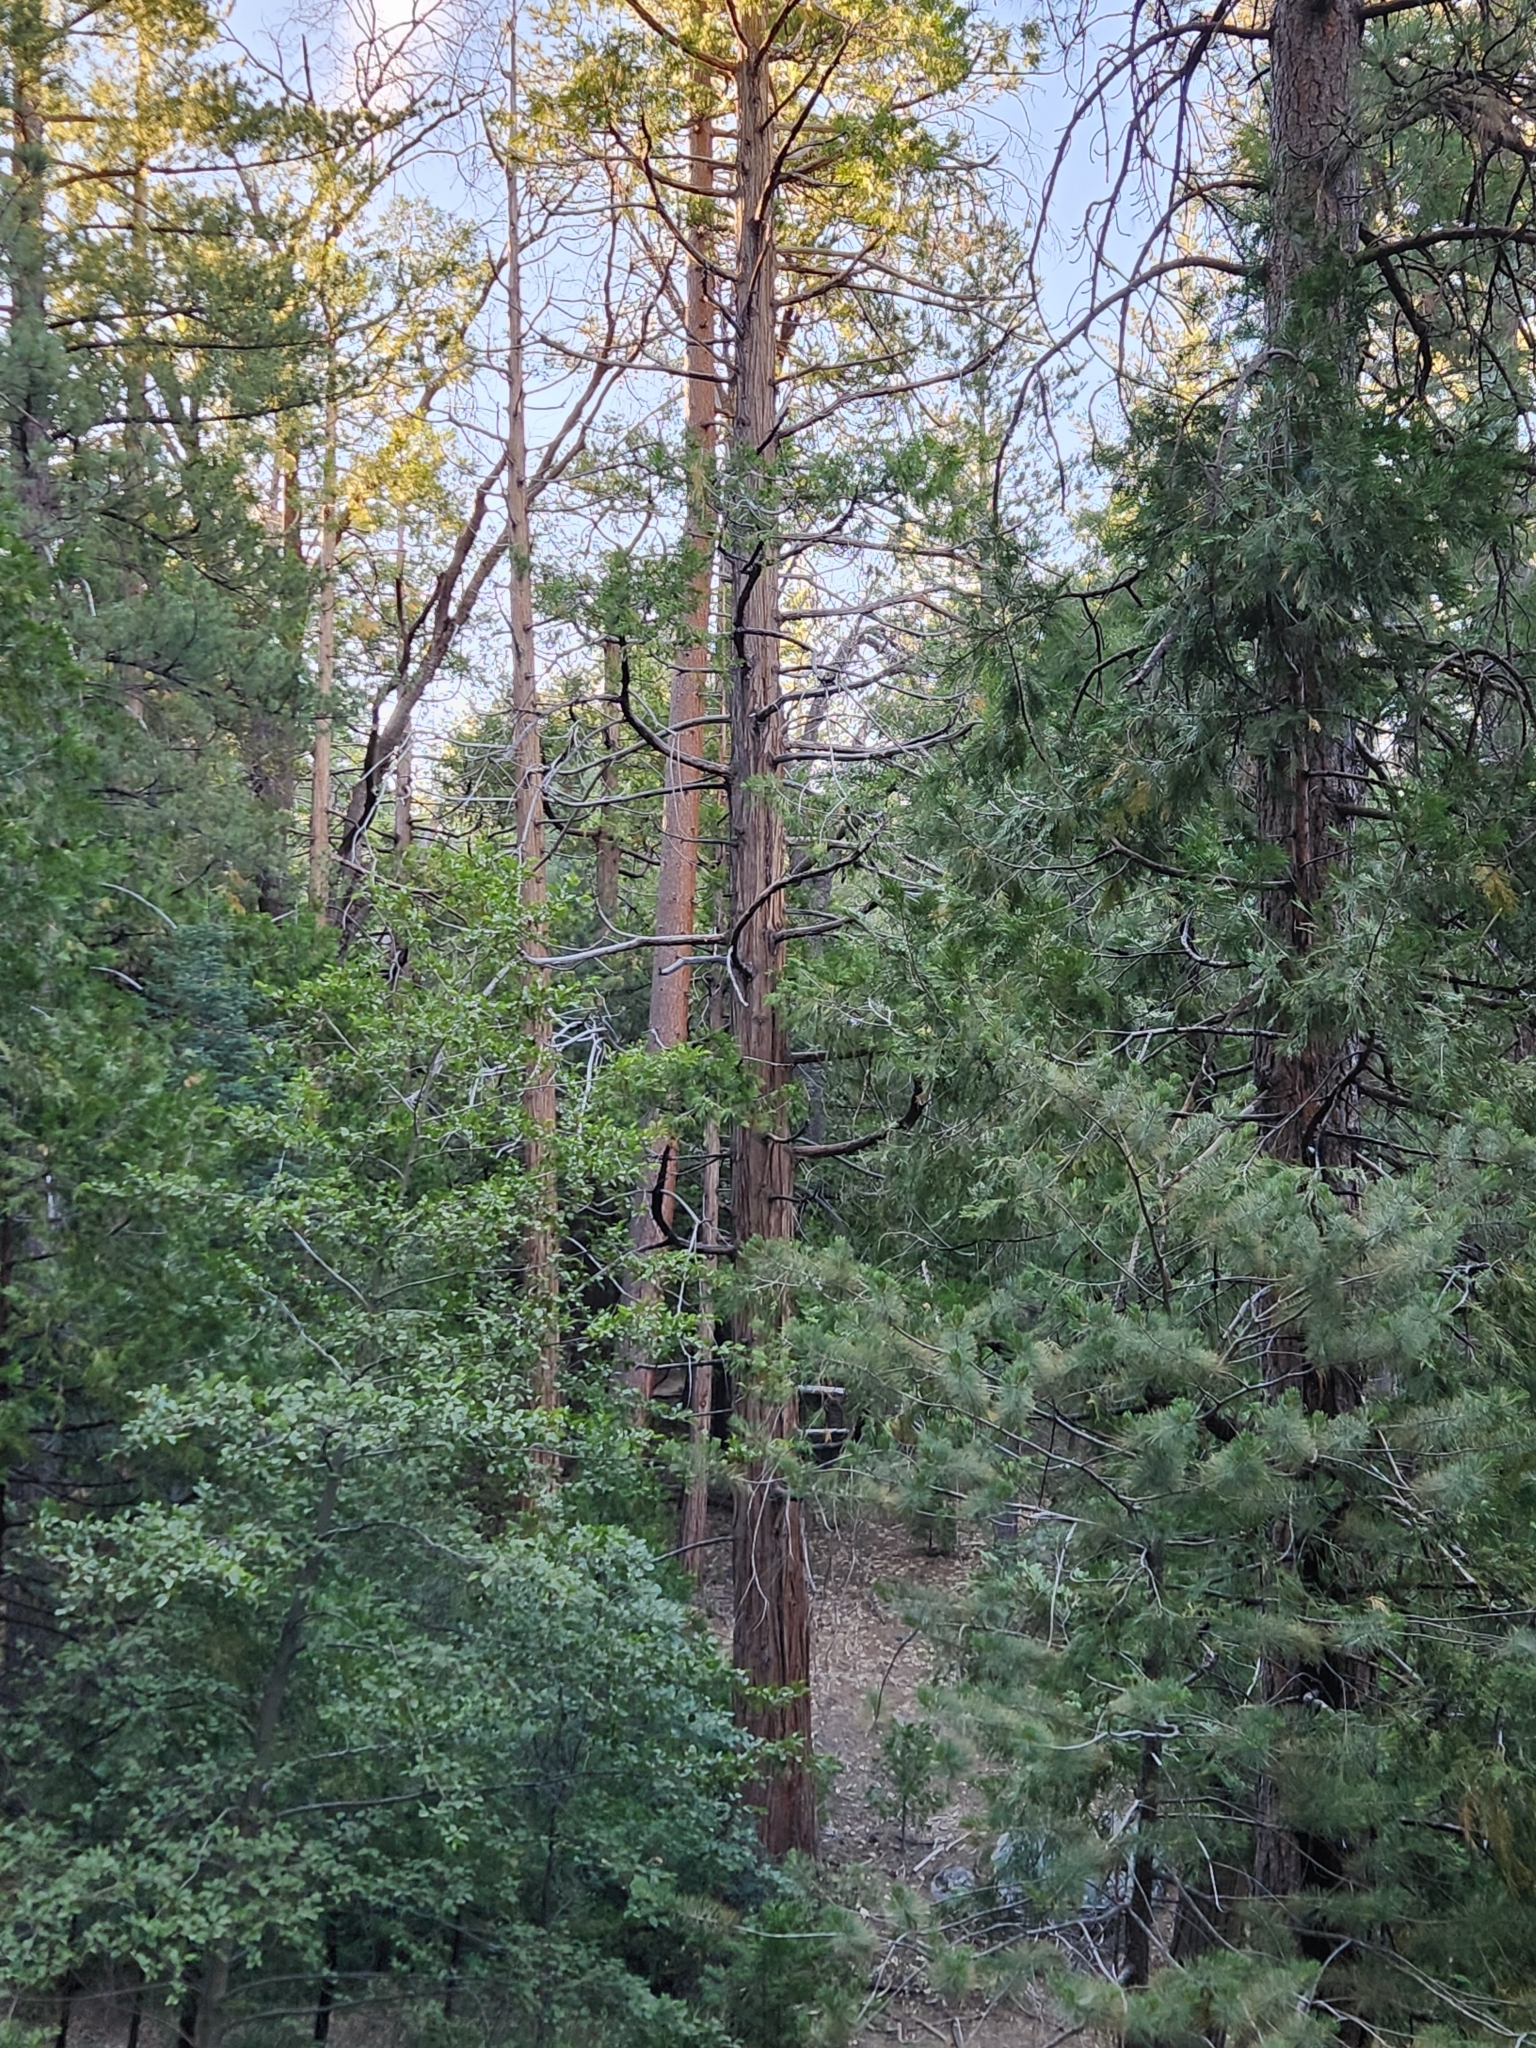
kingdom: Animalia
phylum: Chordata
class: Aves
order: Strigiformes
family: Strigidae
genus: Bubo
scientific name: Bubo virginianus
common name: Great horned owl
